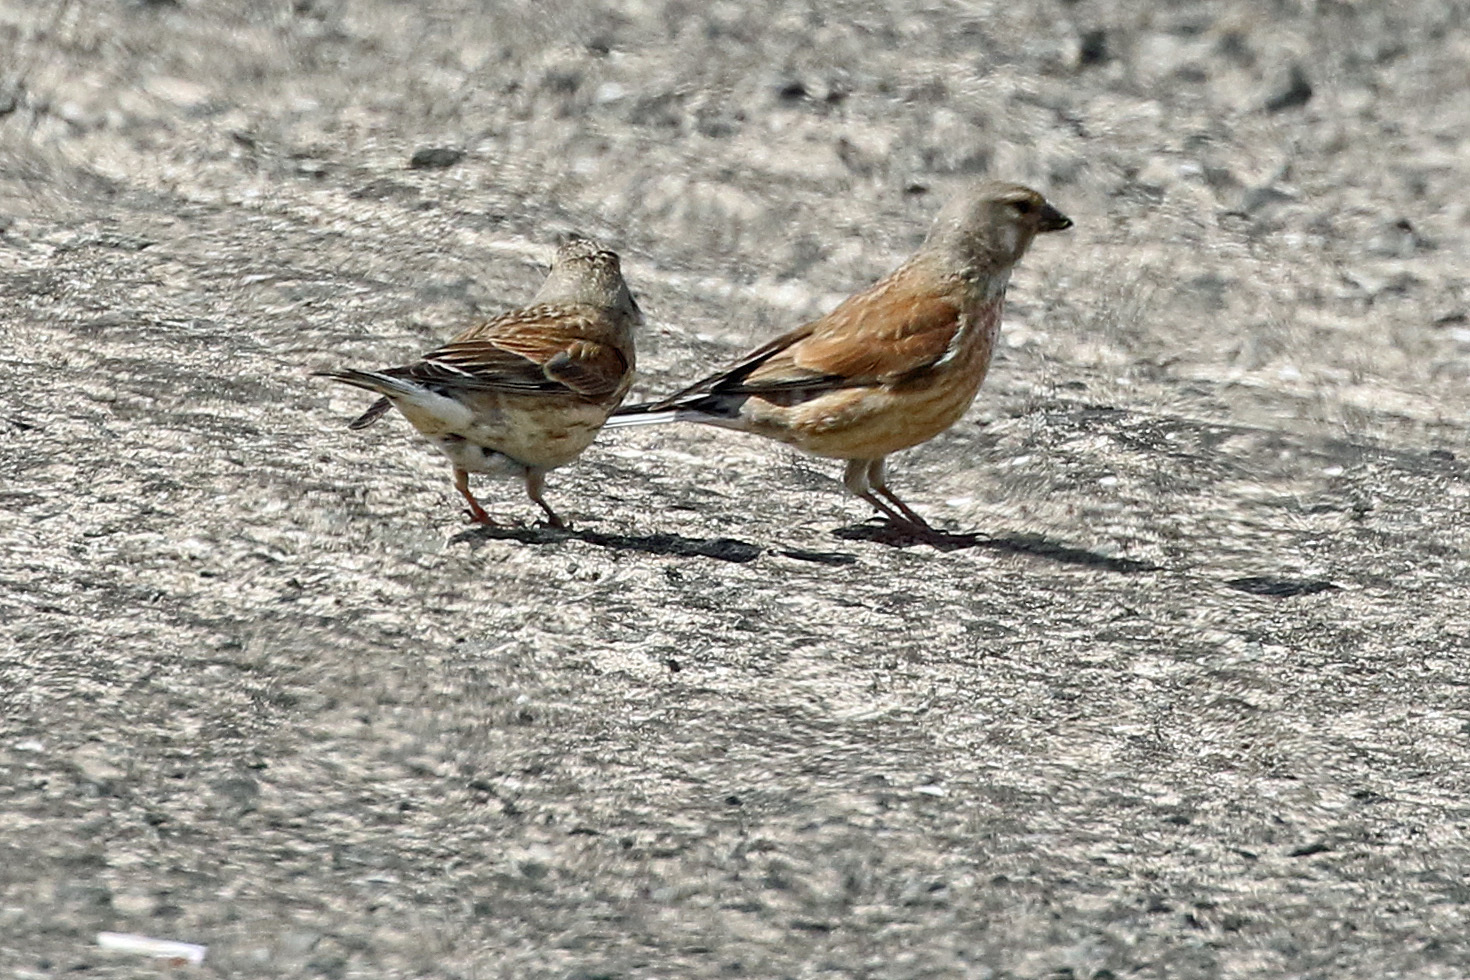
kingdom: Animalia
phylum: Chordata
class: Aves
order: Passeriformes
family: Fringillidae
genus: Linaria
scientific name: Linaria cannabina
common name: Common linnet
